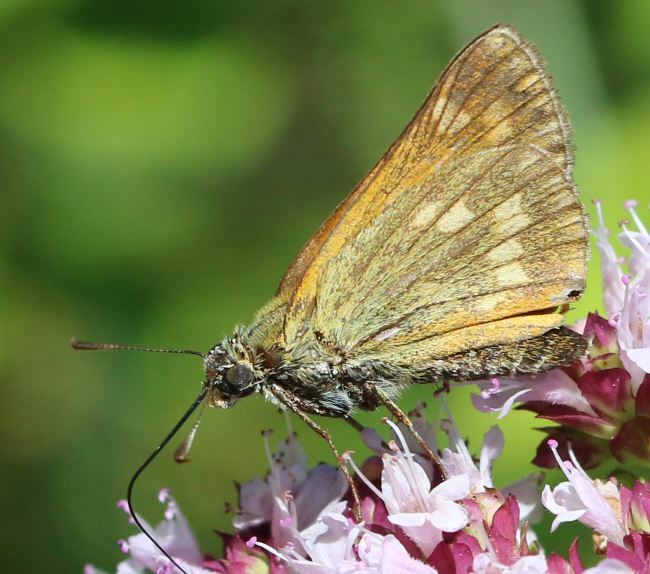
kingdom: Animalia
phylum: Arthropoda
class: Insecta
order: Lepidoptera
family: Hesperiidae
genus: Ochlodes
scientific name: Ochlodes venata
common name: Large skipper
